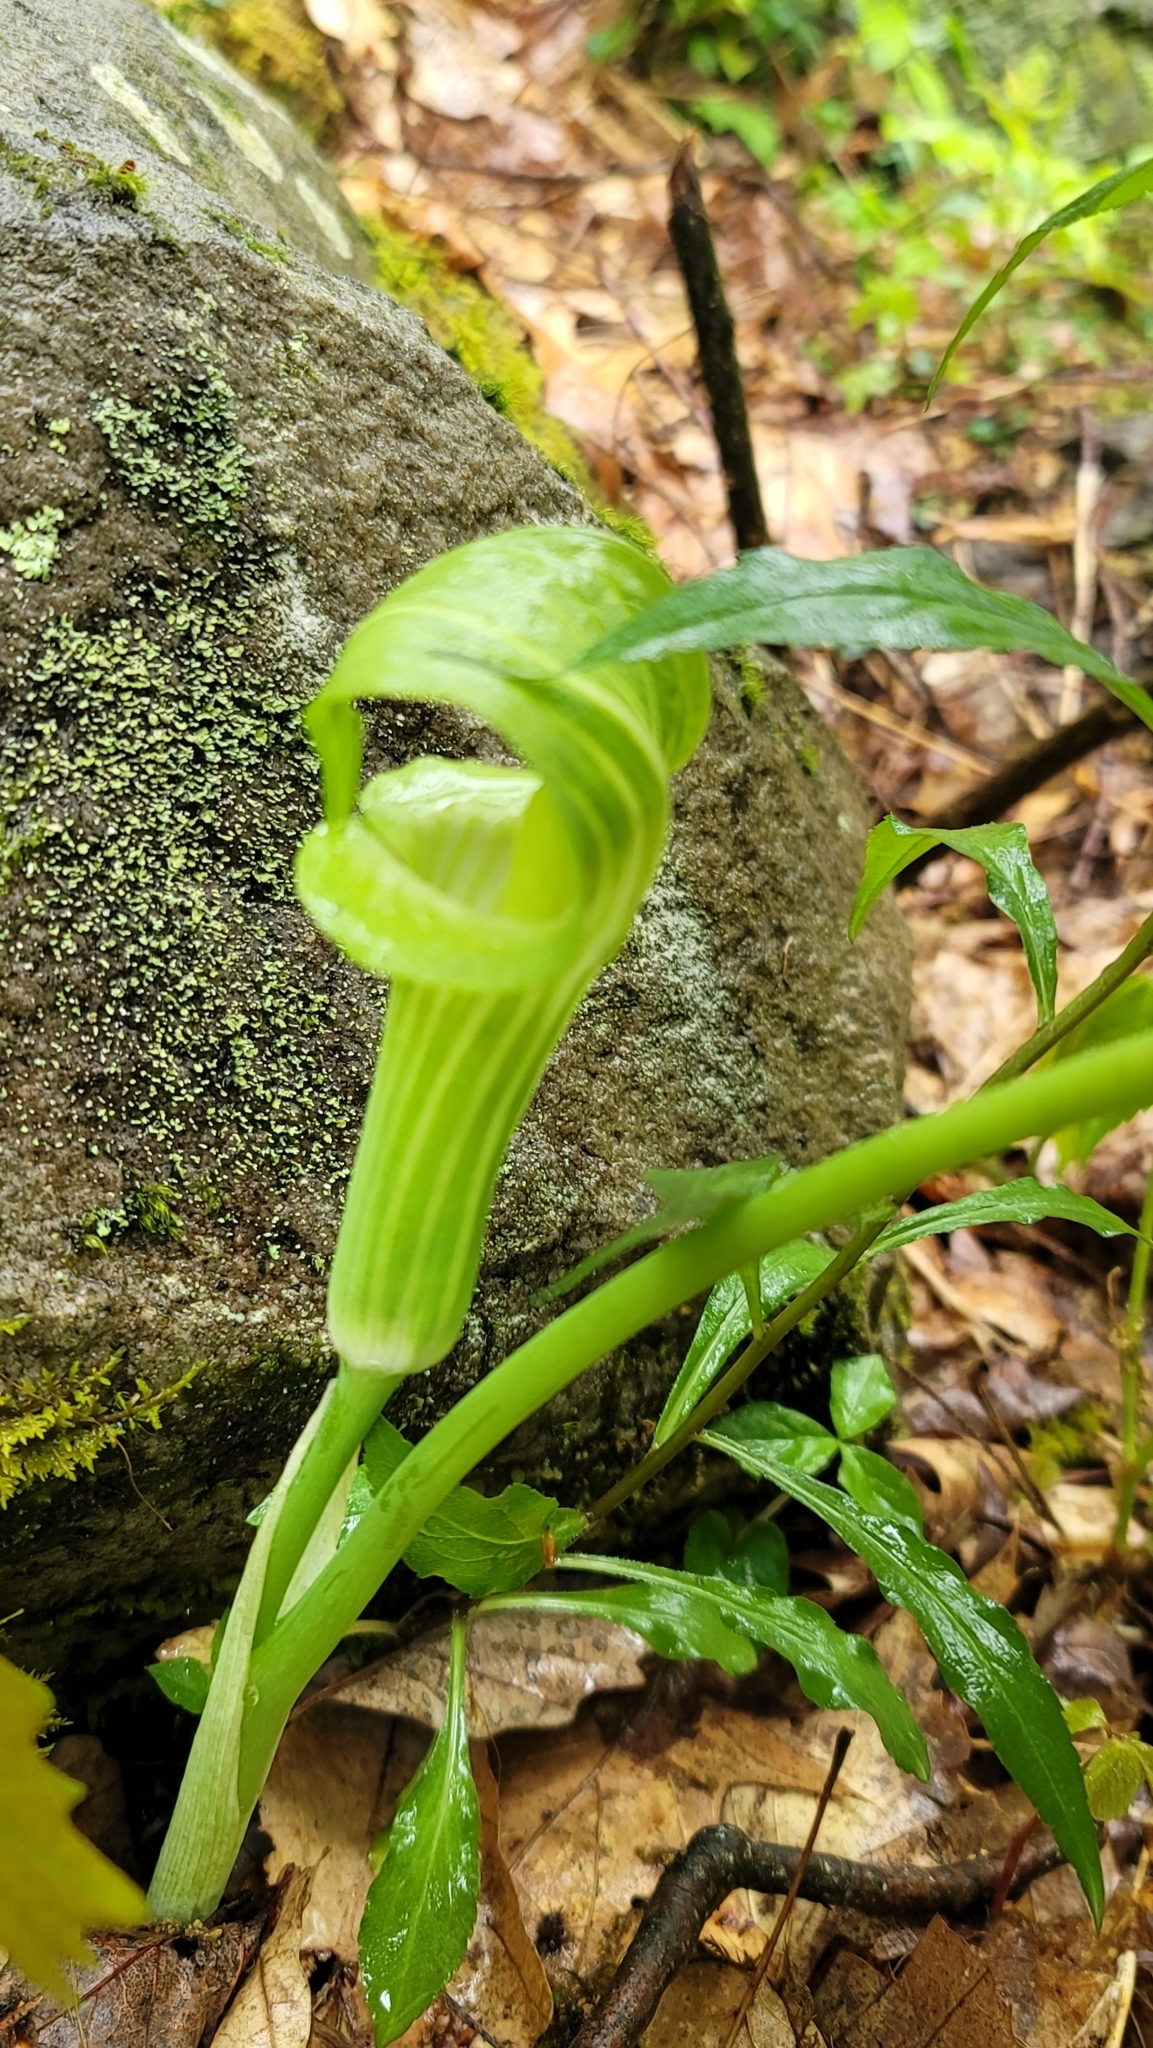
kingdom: Plantae
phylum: Tracheophyta
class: Liliopsida
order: Alismatales
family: Araceae
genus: Arisaema
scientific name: Arisaema triphyllum
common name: Jack-in-the-pulpit
